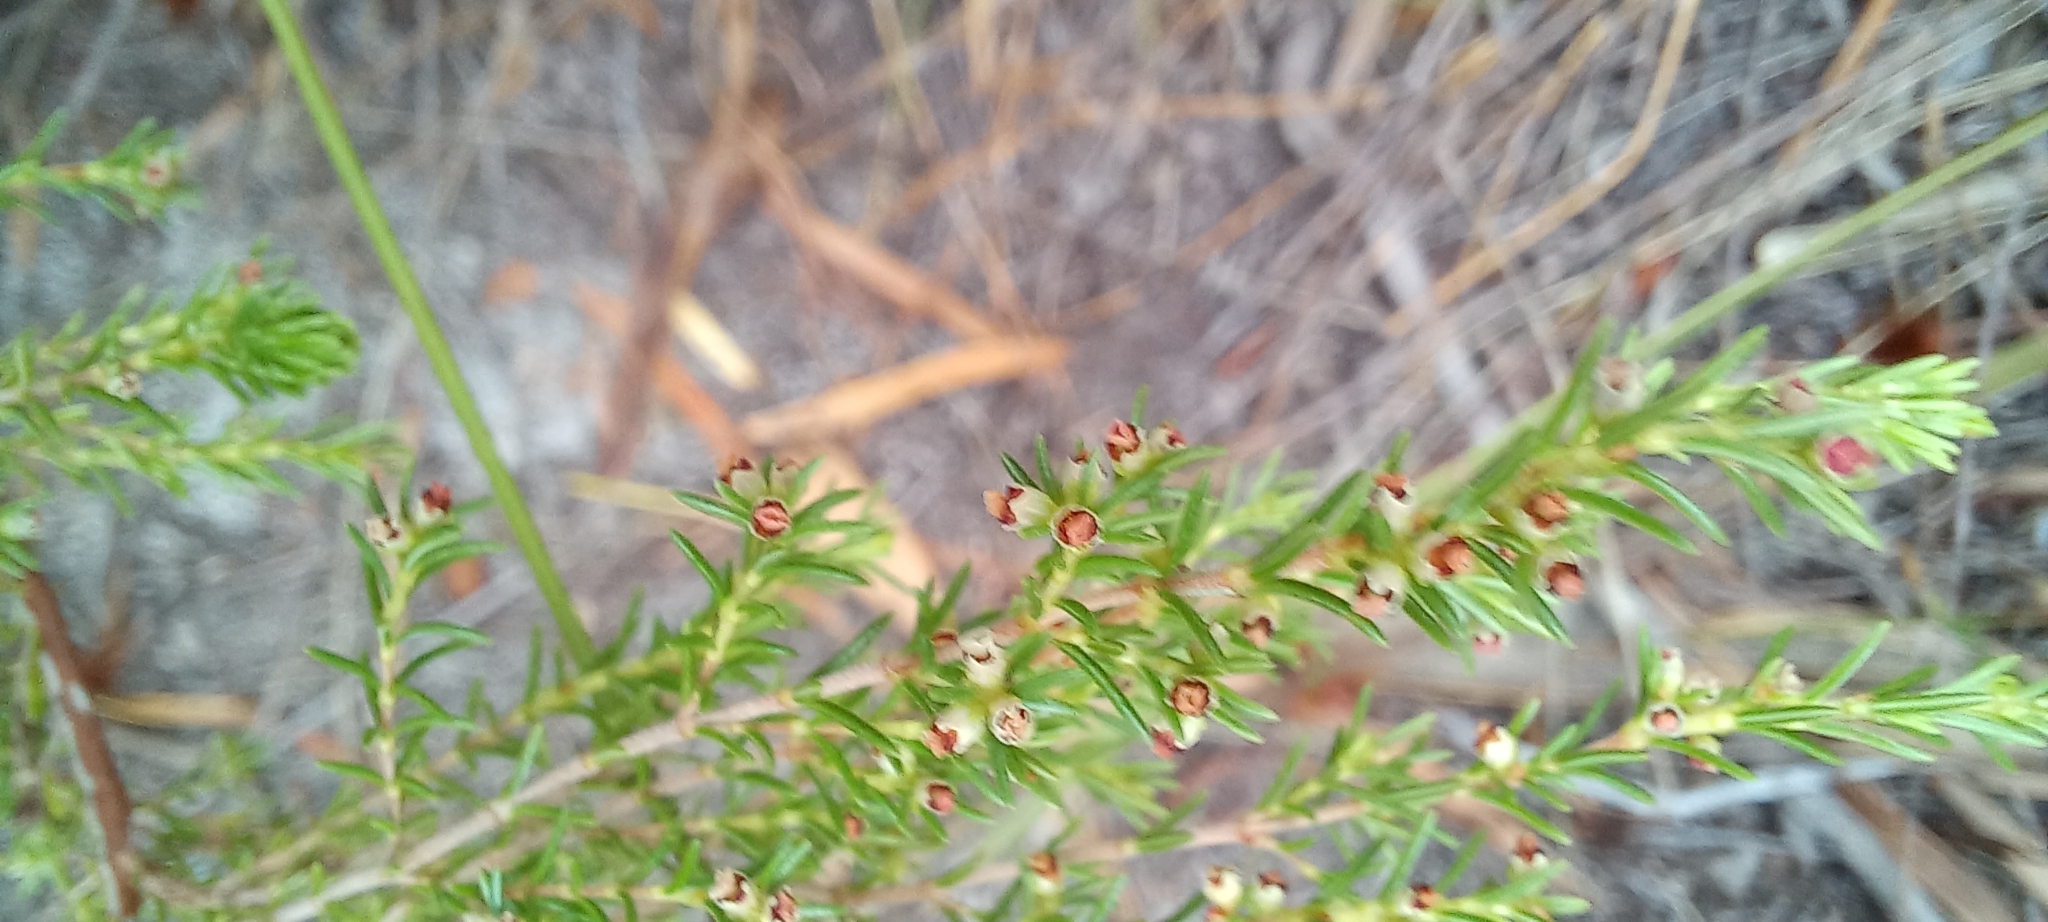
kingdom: Plantae
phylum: Tracheophyta
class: Magnoliopsida
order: Ericales
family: Ericaceae
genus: Erica
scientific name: Erica axillaris
